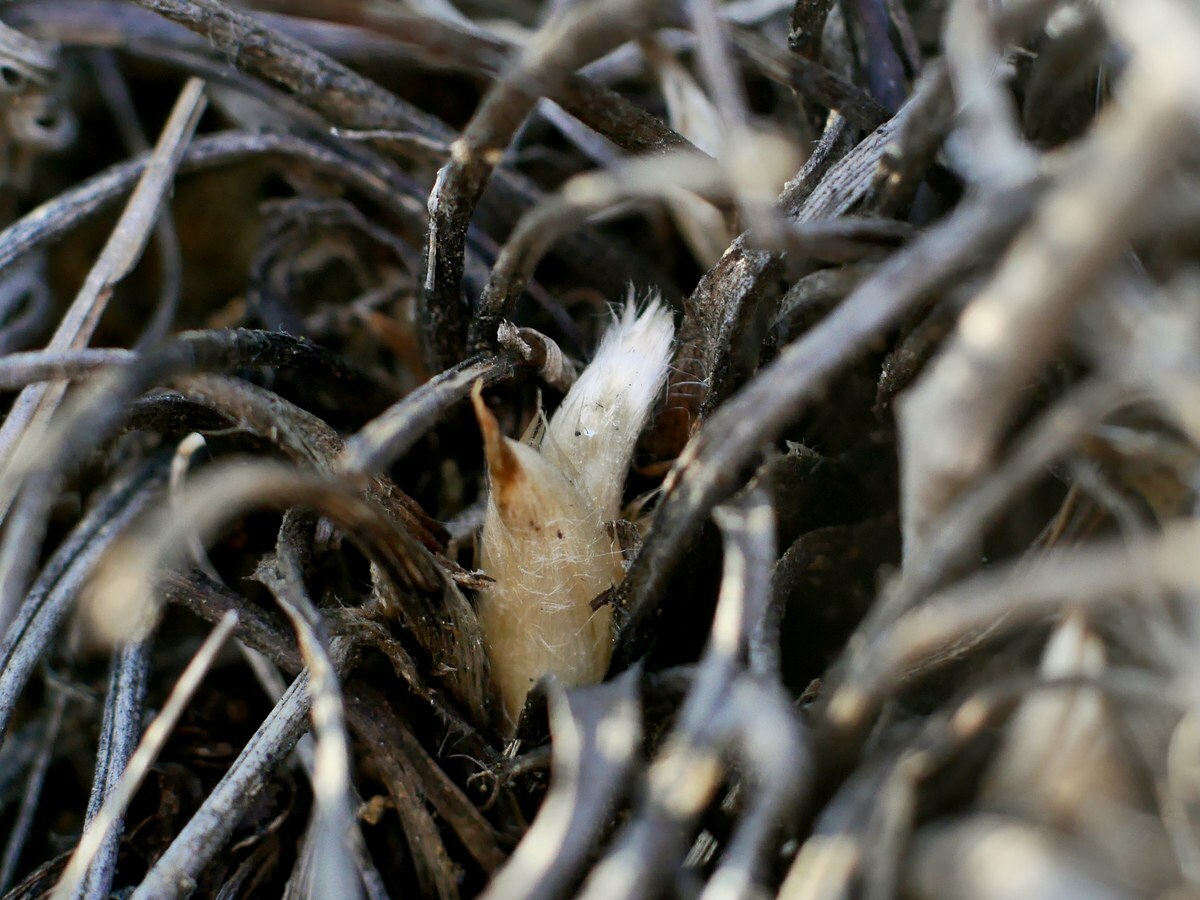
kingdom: Plantae
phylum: Tracheophyta
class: Magnoliopsida
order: Ranunculales
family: Ranunculaceae
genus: Pulsatilla
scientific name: Pulsatilla pratensis
